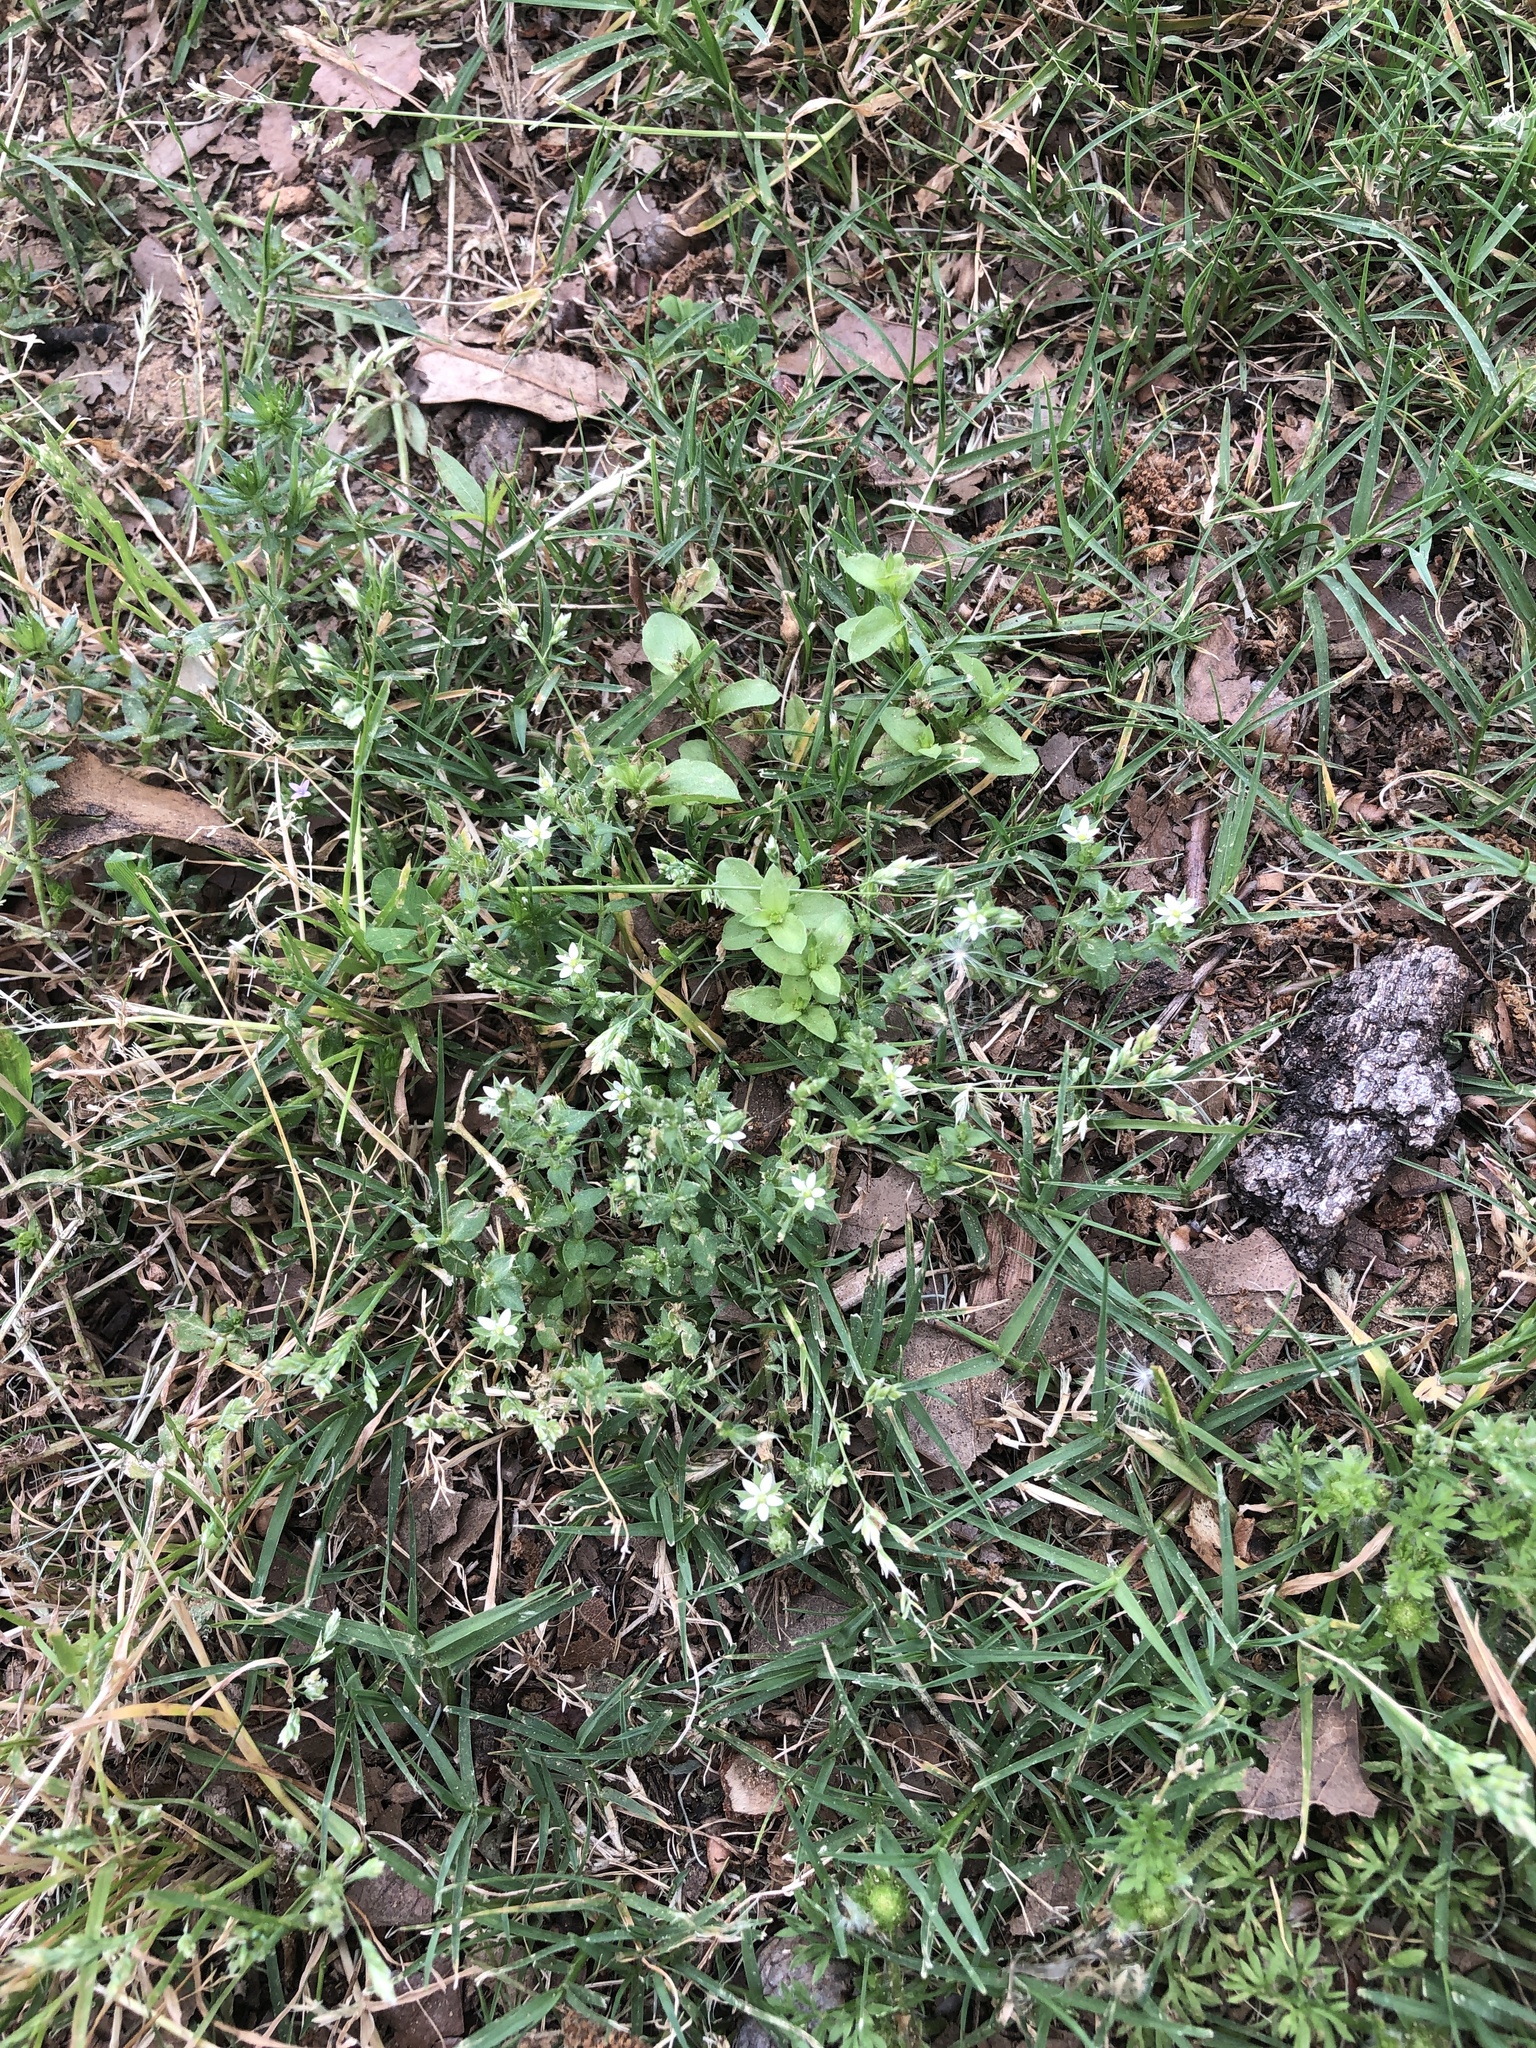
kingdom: Plantae
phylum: Tracheophyta
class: Magnoliopsida
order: Caryophyllales
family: Caryophyllaceae
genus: Arenaria
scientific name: Arenaria serpyllifolia
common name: Thyme-leaved sandwort
